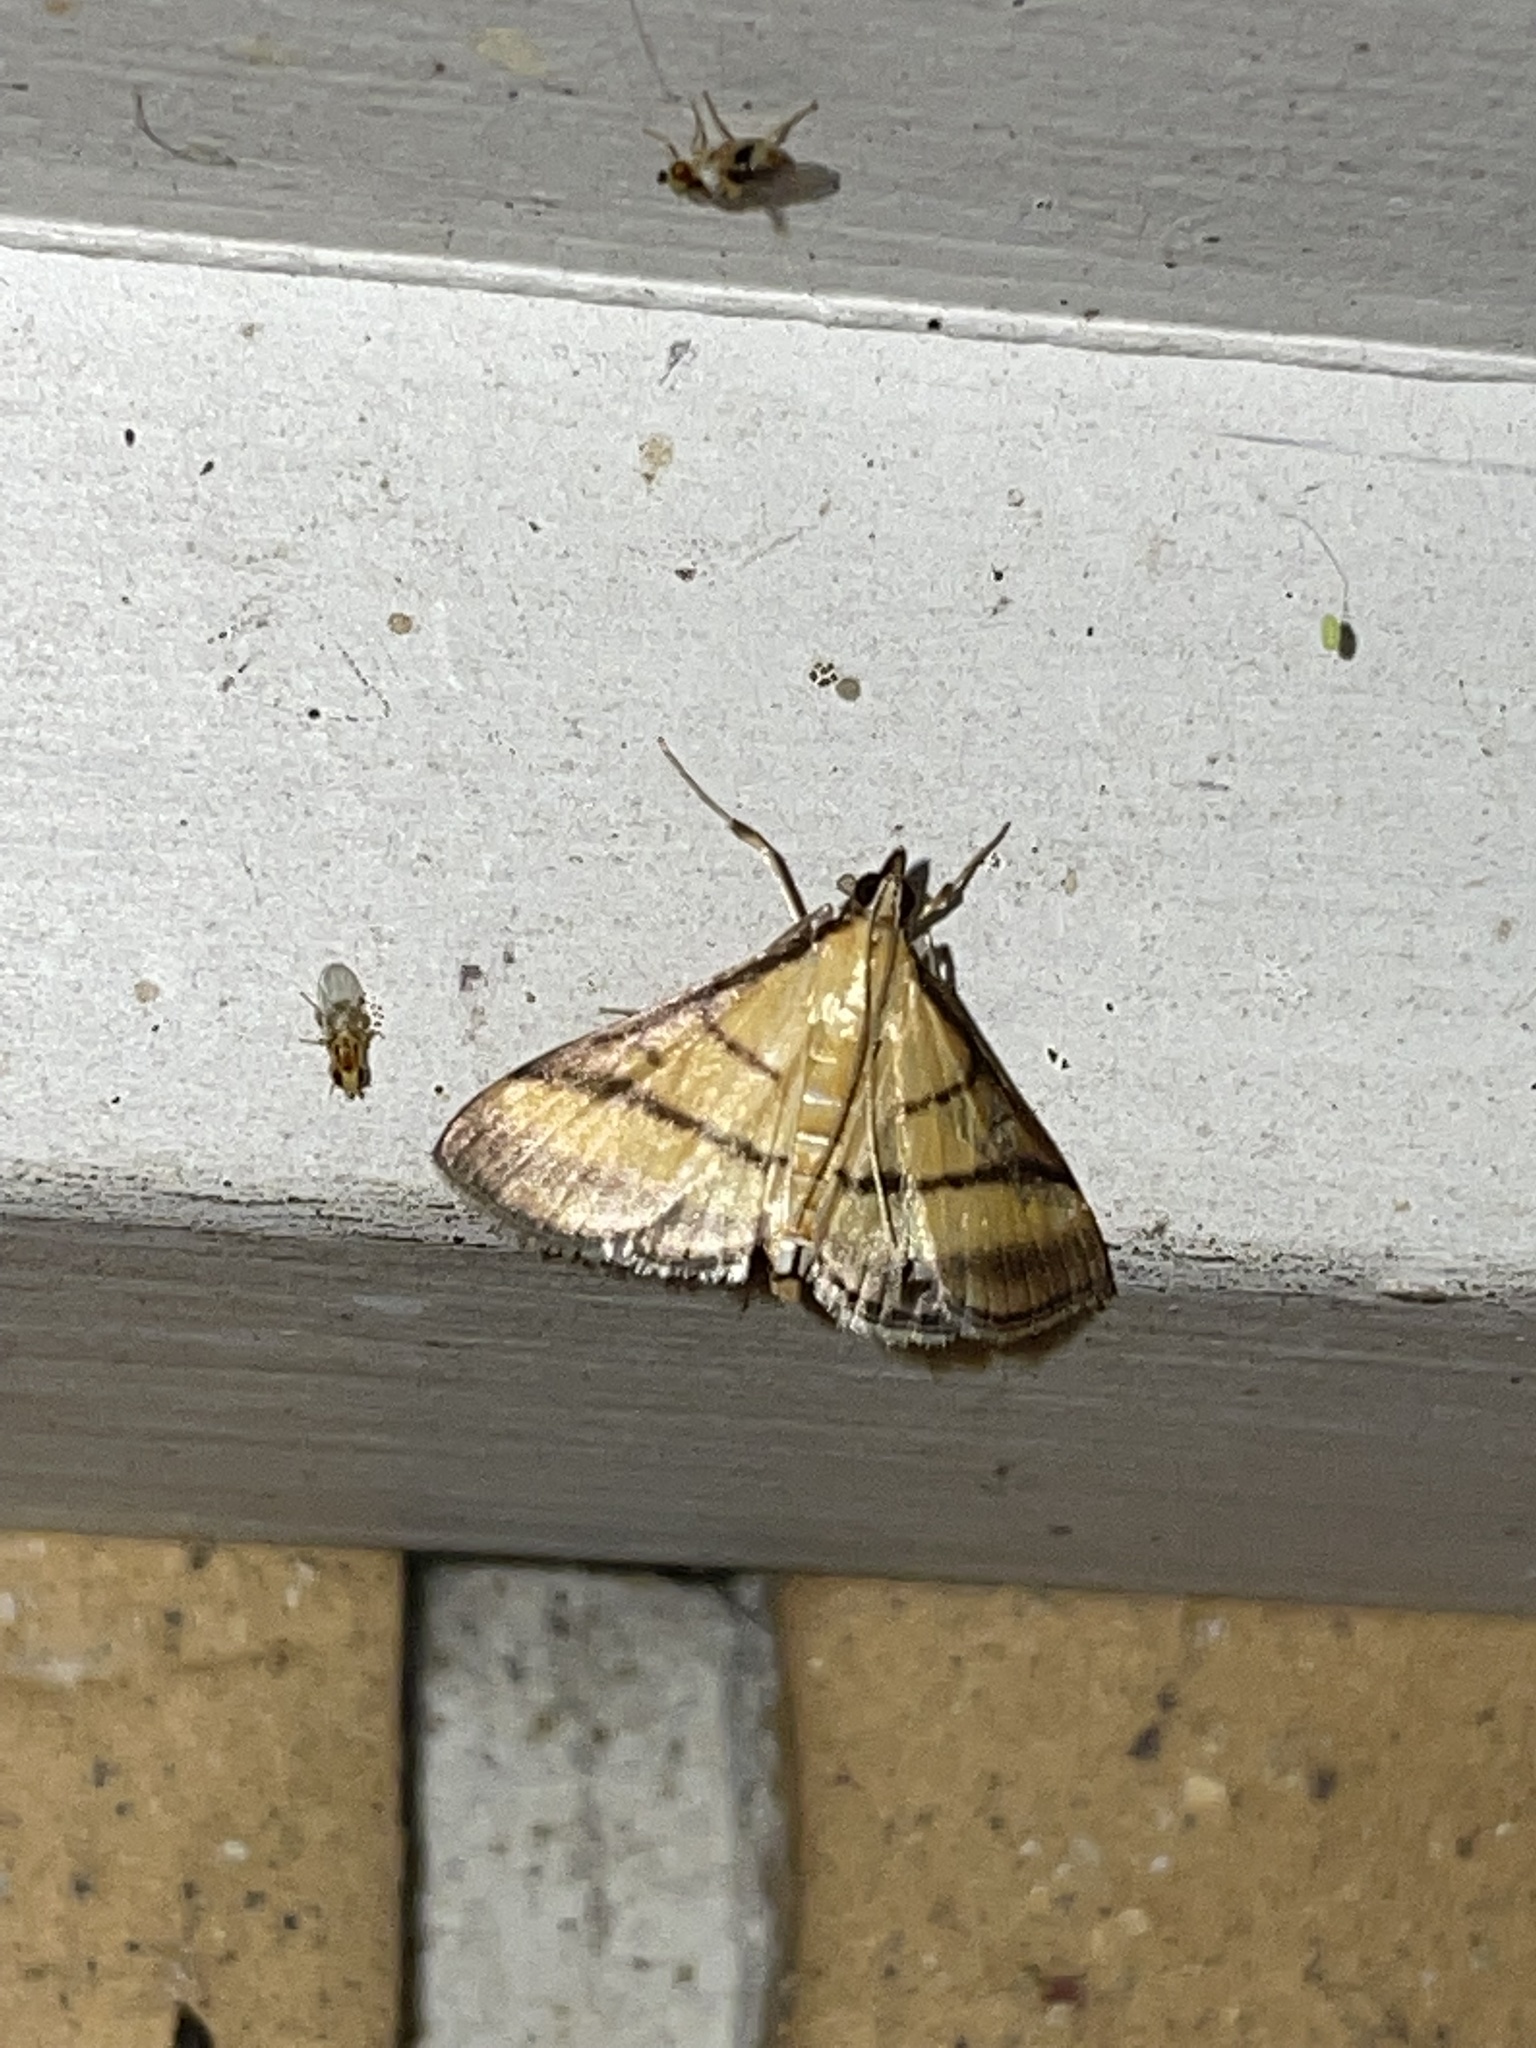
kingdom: Animalia
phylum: Arthropoda
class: Insecta
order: Lepidoptera
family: Crambidae
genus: Cnaphalocrocis
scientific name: Cnaphalocrocis medinalis
